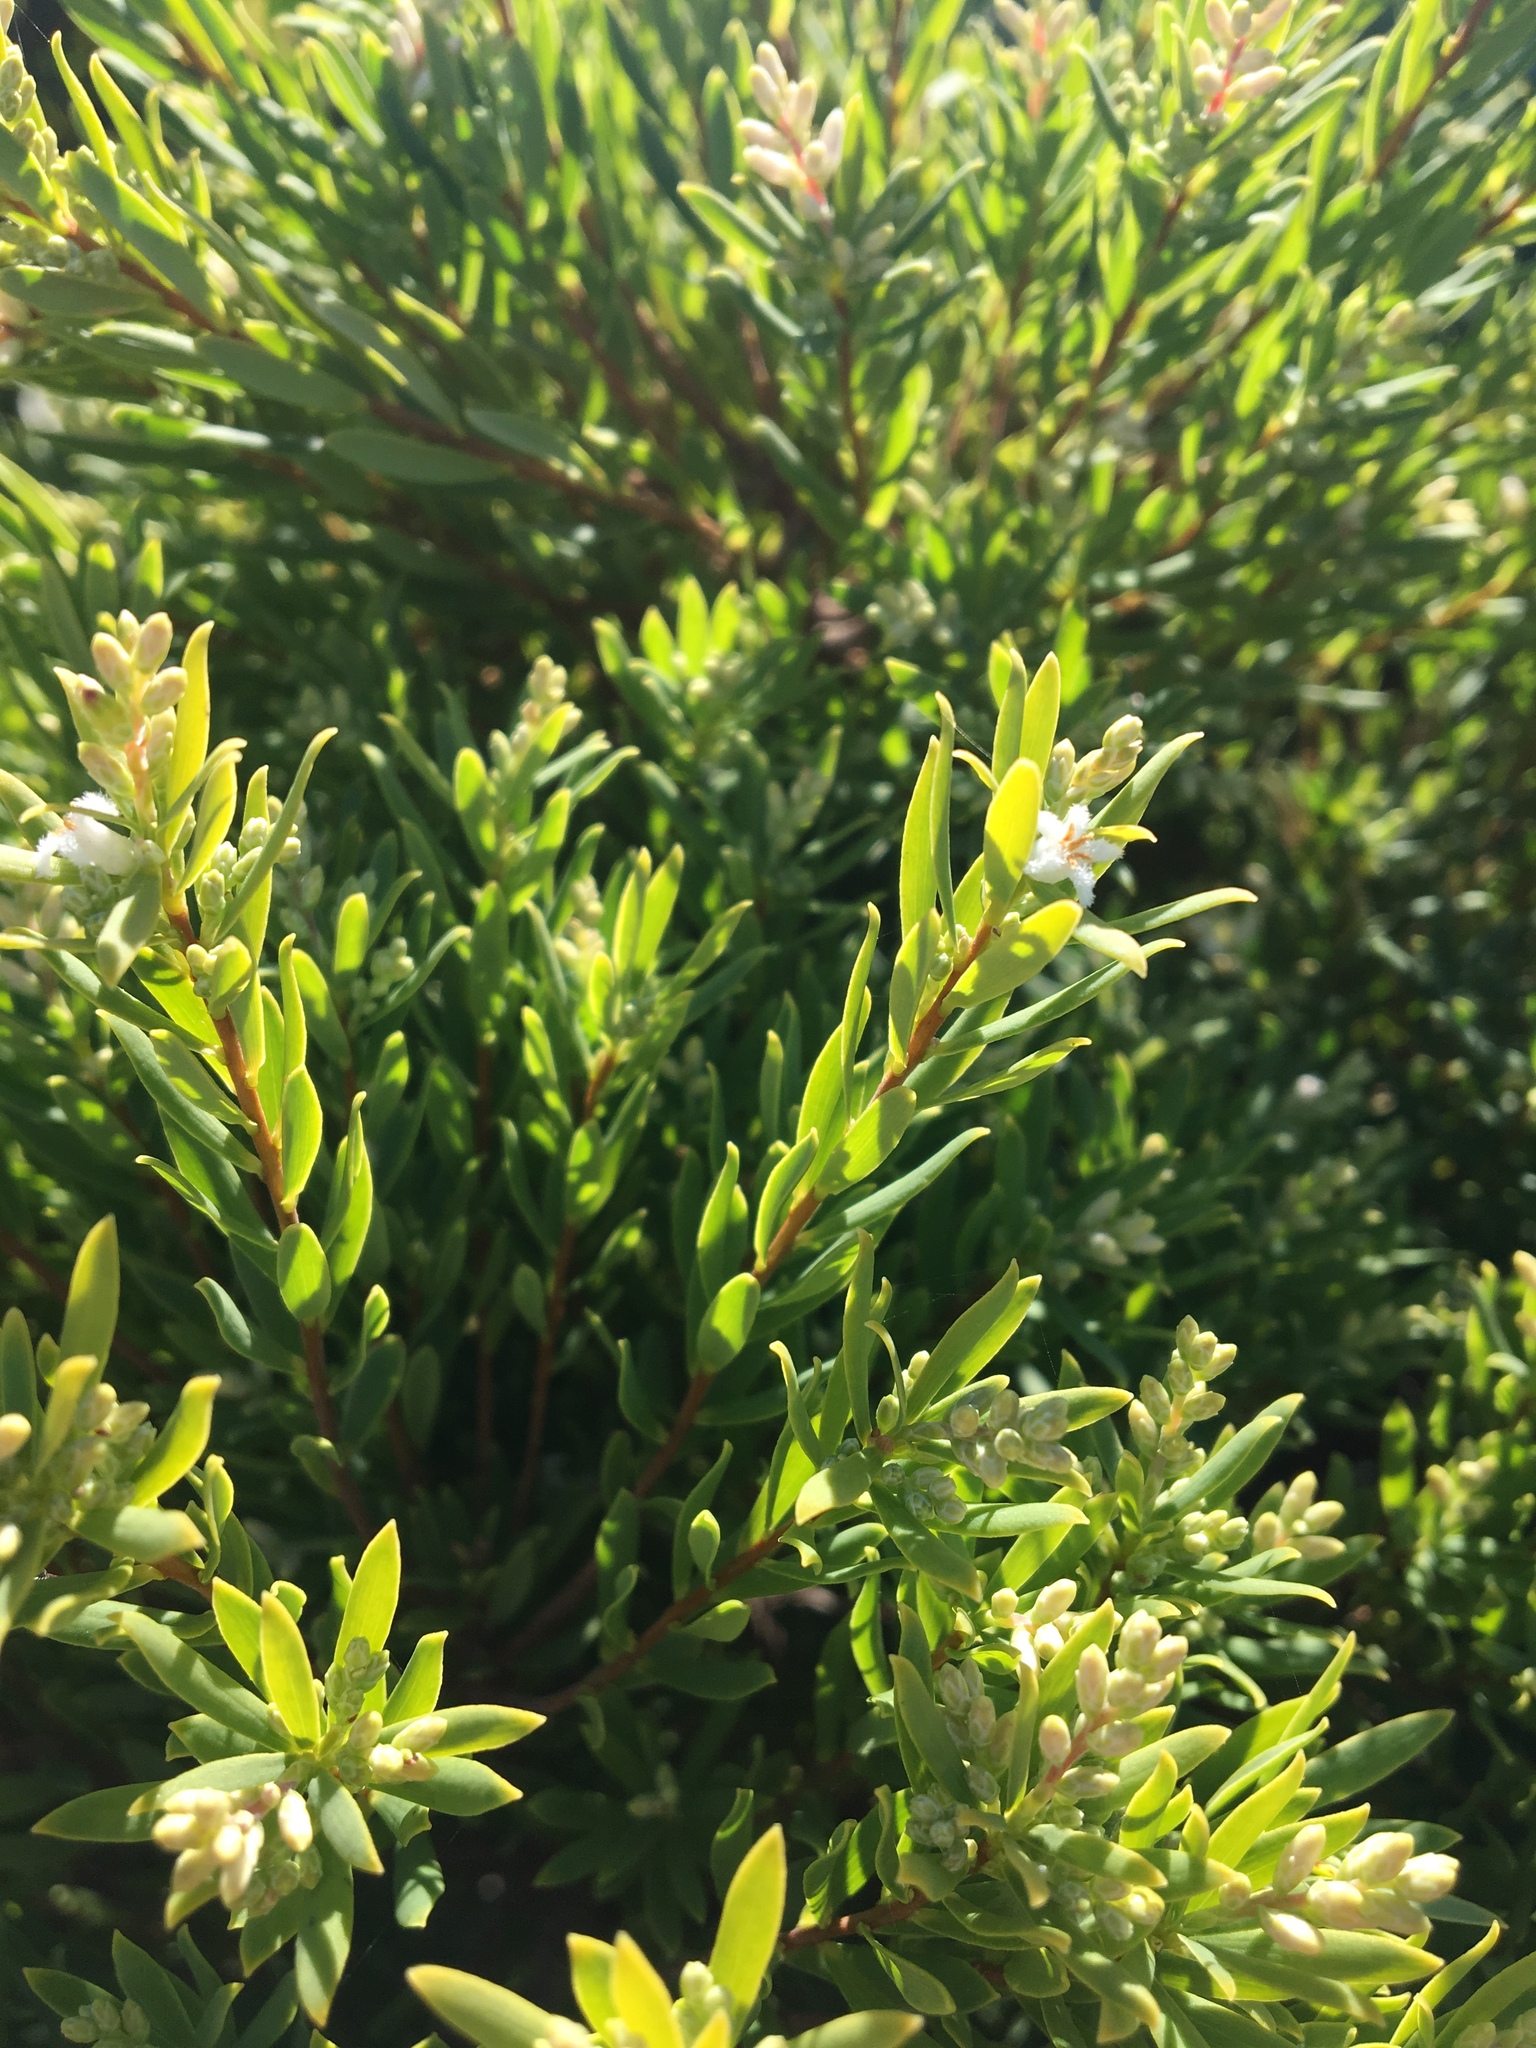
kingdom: Plantae
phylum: Tracheophyta
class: Magnoliopsida
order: Ericales
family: Ericaceae
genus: Leptecophylla
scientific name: Leptecophylla parvifolia
